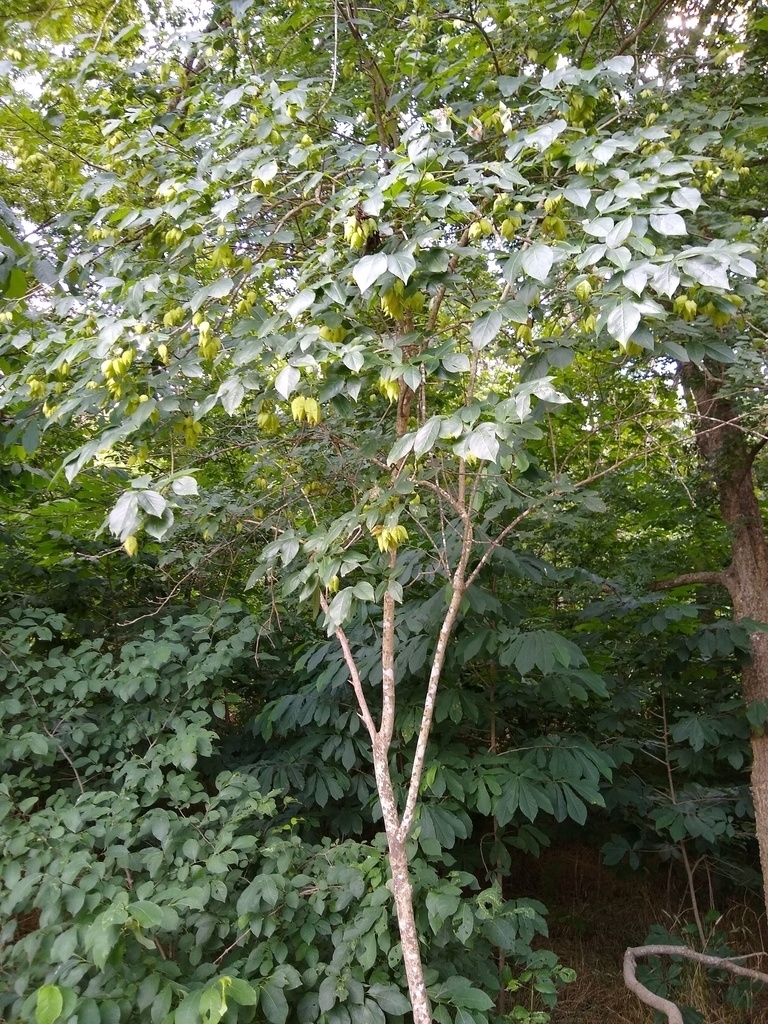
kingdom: Plantae
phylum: Tracheophyta
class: Magnoliopsida
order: Magnoliales
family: Annonaceae
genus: Asimina
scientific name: Asimina triloba
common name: Dog-banana
